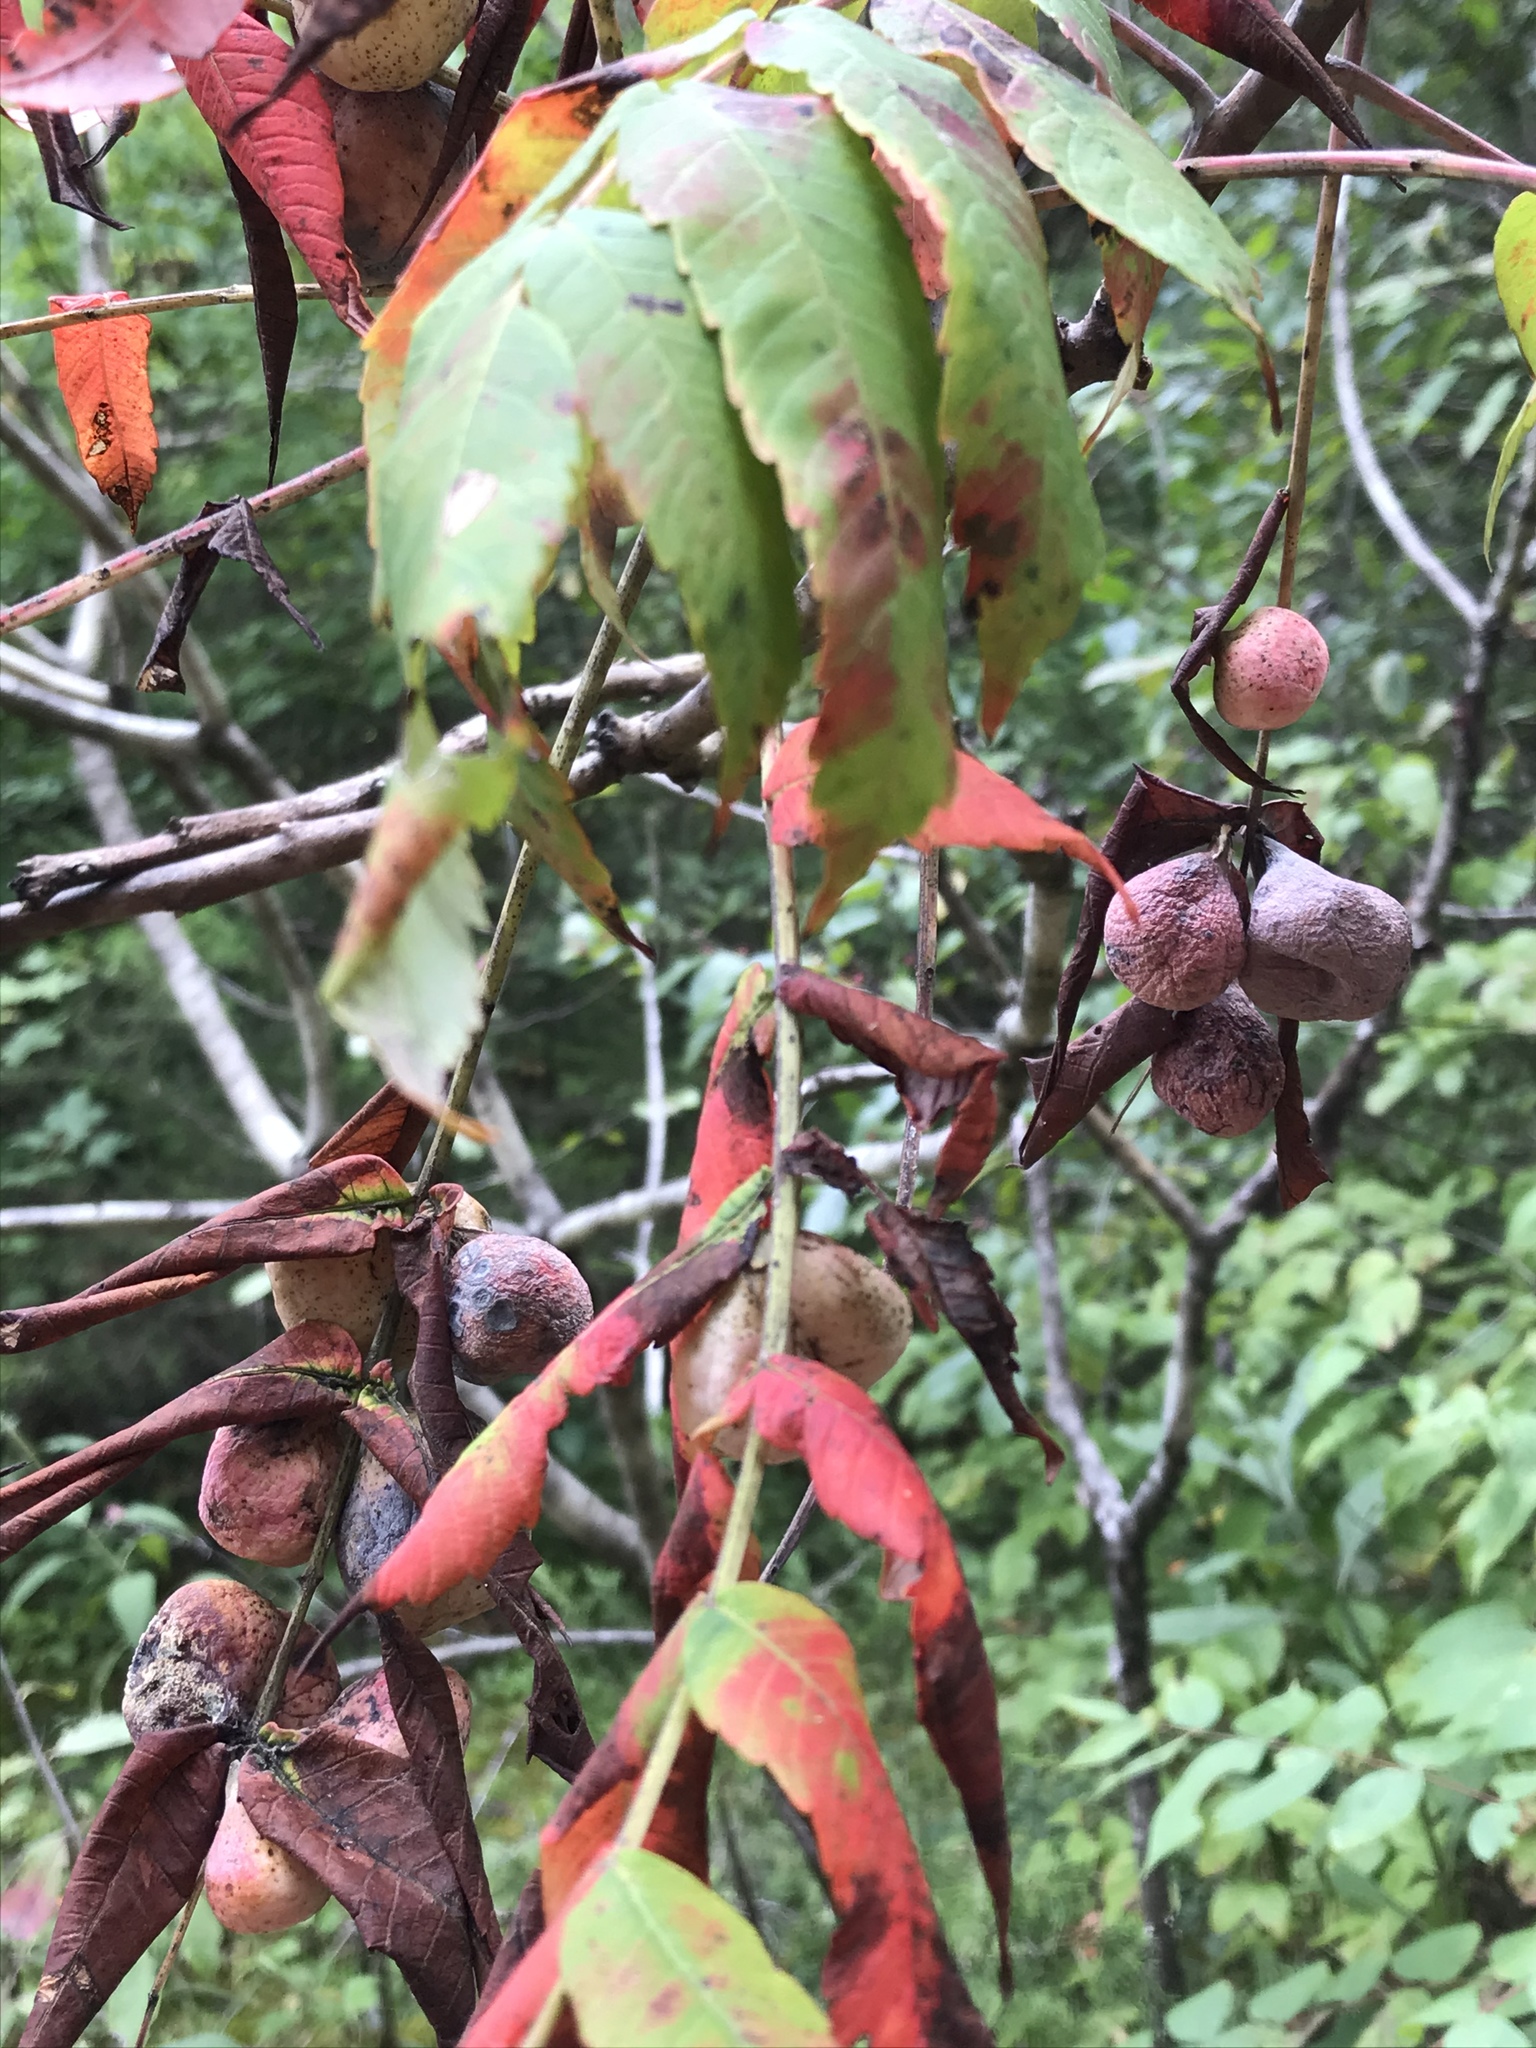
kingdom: Animalia
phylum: Arthropoda
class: Insecta
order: Hemiptera
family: Aphididae
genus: Melaphis
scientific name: Melaphis rhois
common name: Sumac gall aphid
